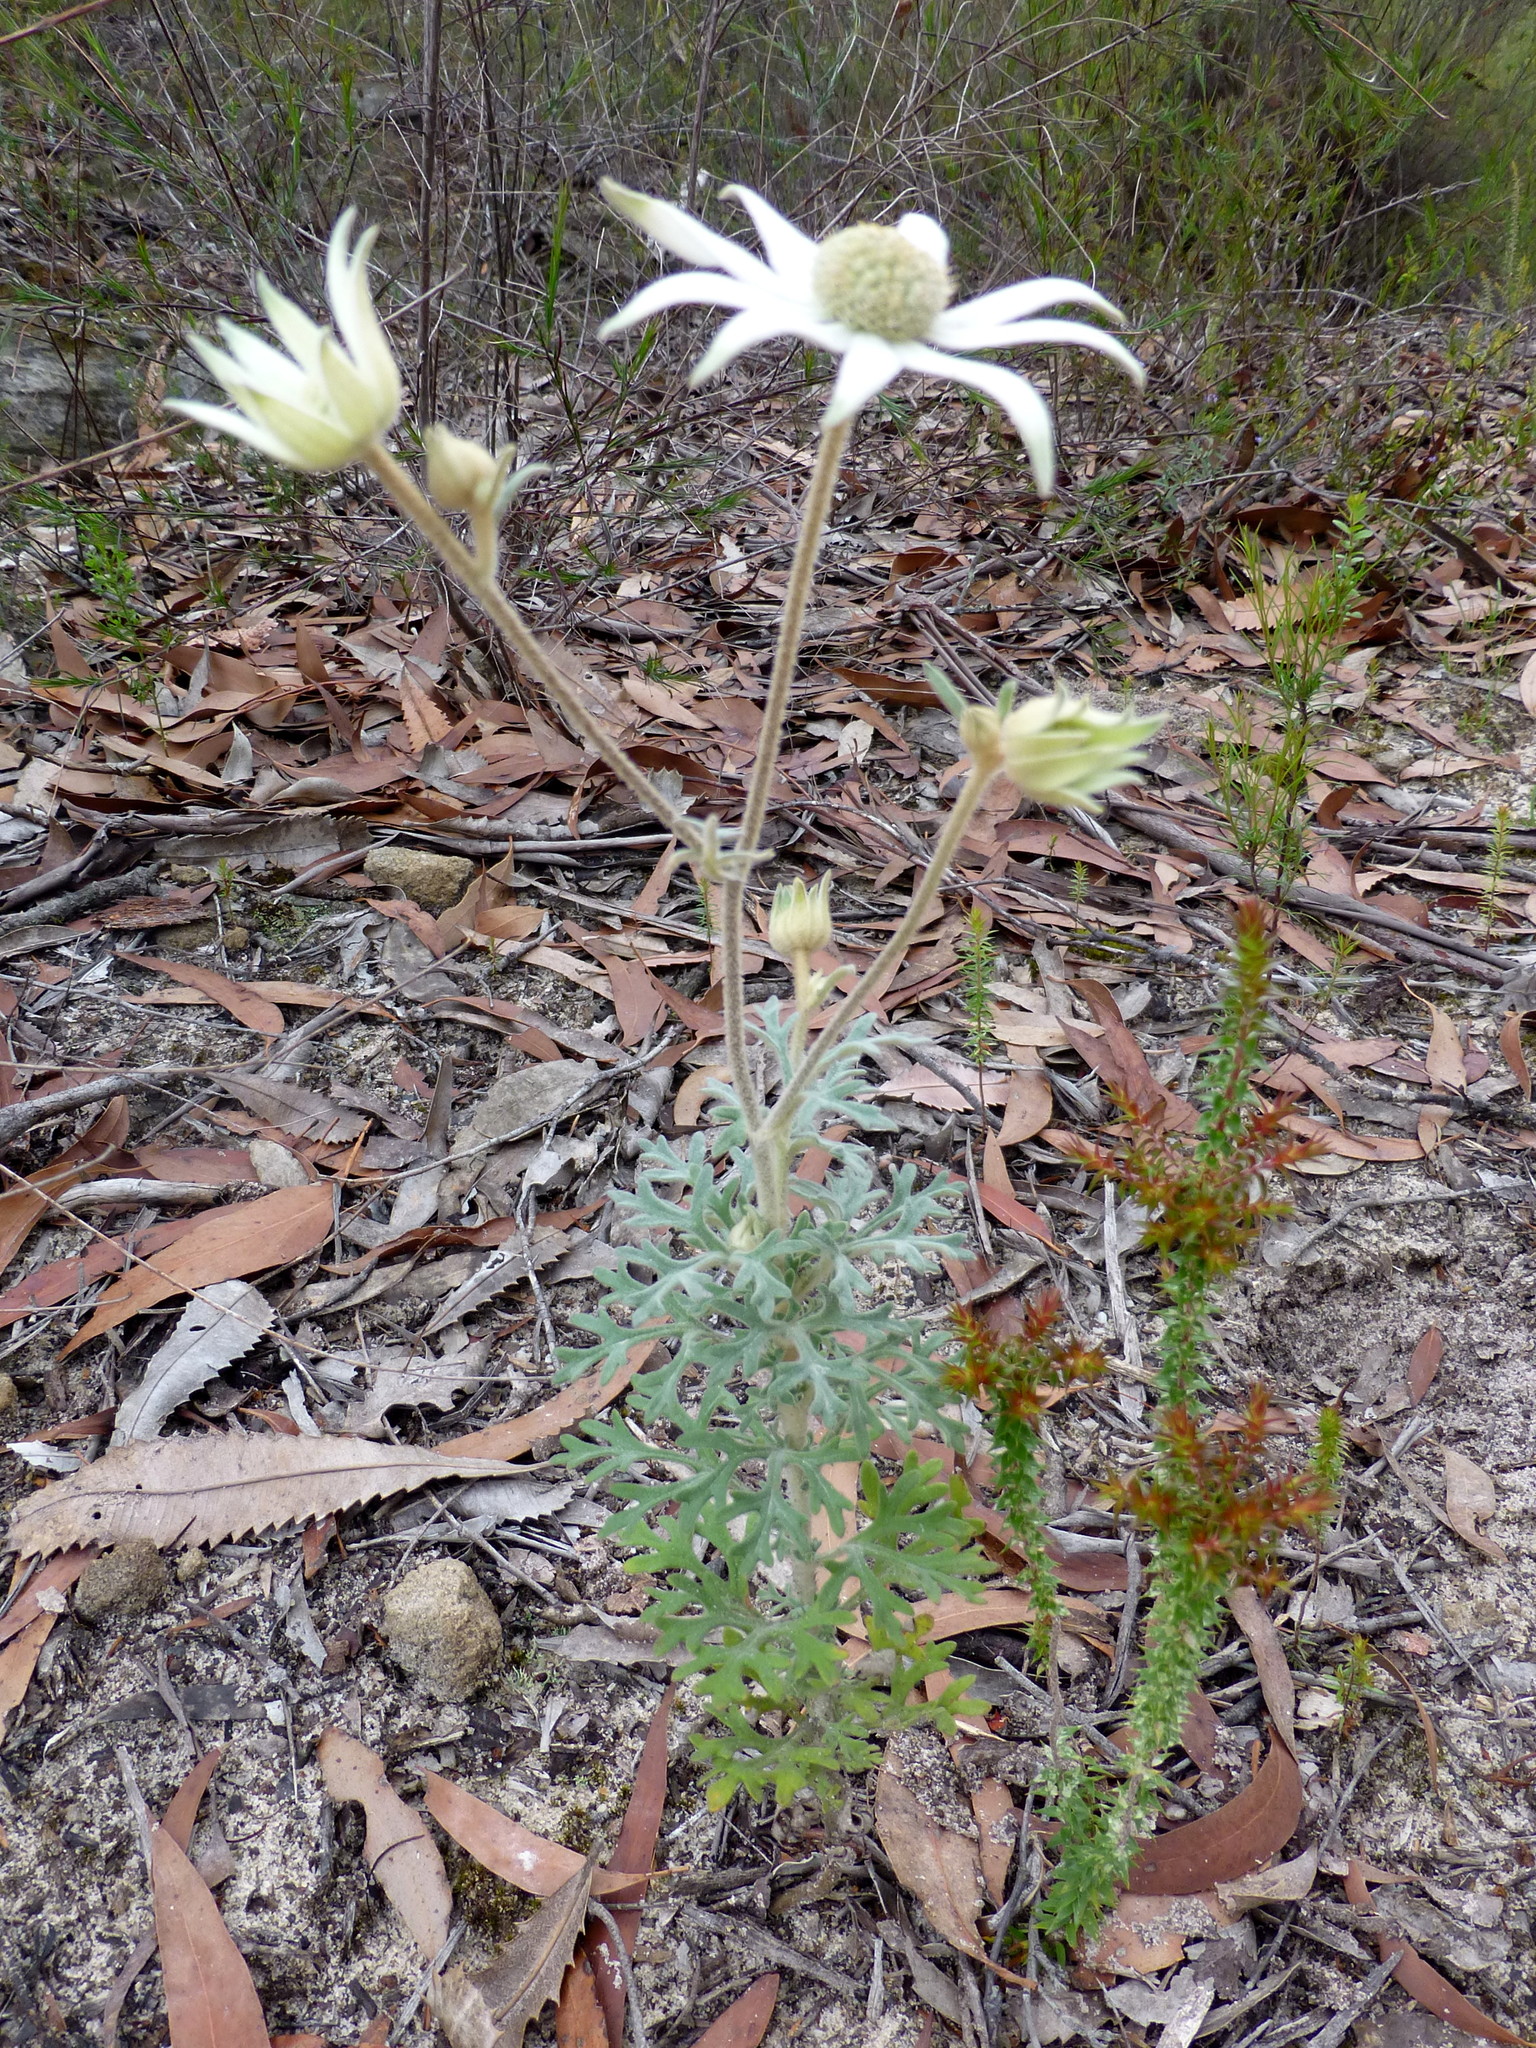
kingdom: Plantae
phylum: Tracheophyta
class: Magnoliopsida
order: Apiales
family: Apiaceae
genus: Actinotus
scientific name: Actinotus helianthi
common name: Flannel-flower
